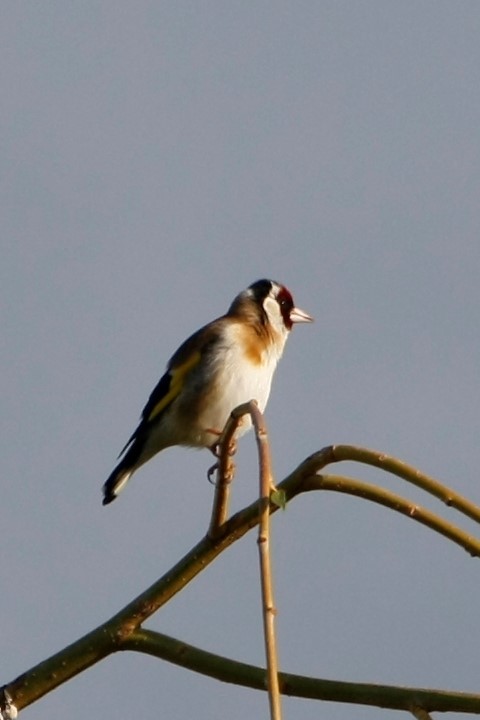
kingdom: Animalia
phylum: Chordata
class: Aves
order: Passeriformes
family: Fringillidae
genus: Carduelis
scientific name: Carduelis carduelis
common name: European goldfinch
